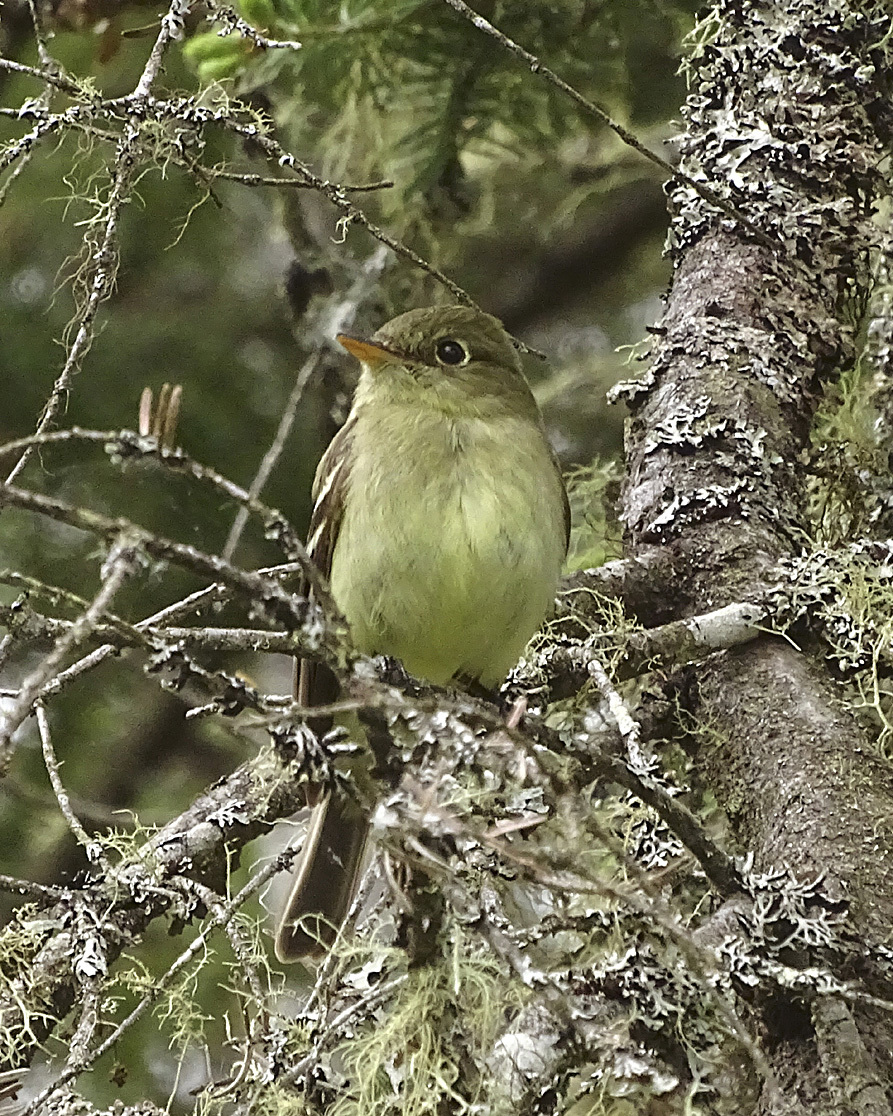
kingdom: Animalia
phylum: Chordata
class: Aves
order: Passeriformes
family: Tyrannidae
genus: Empidonax
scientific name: Empidonax flaviventris
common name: Yellow-bellied flycatcher
